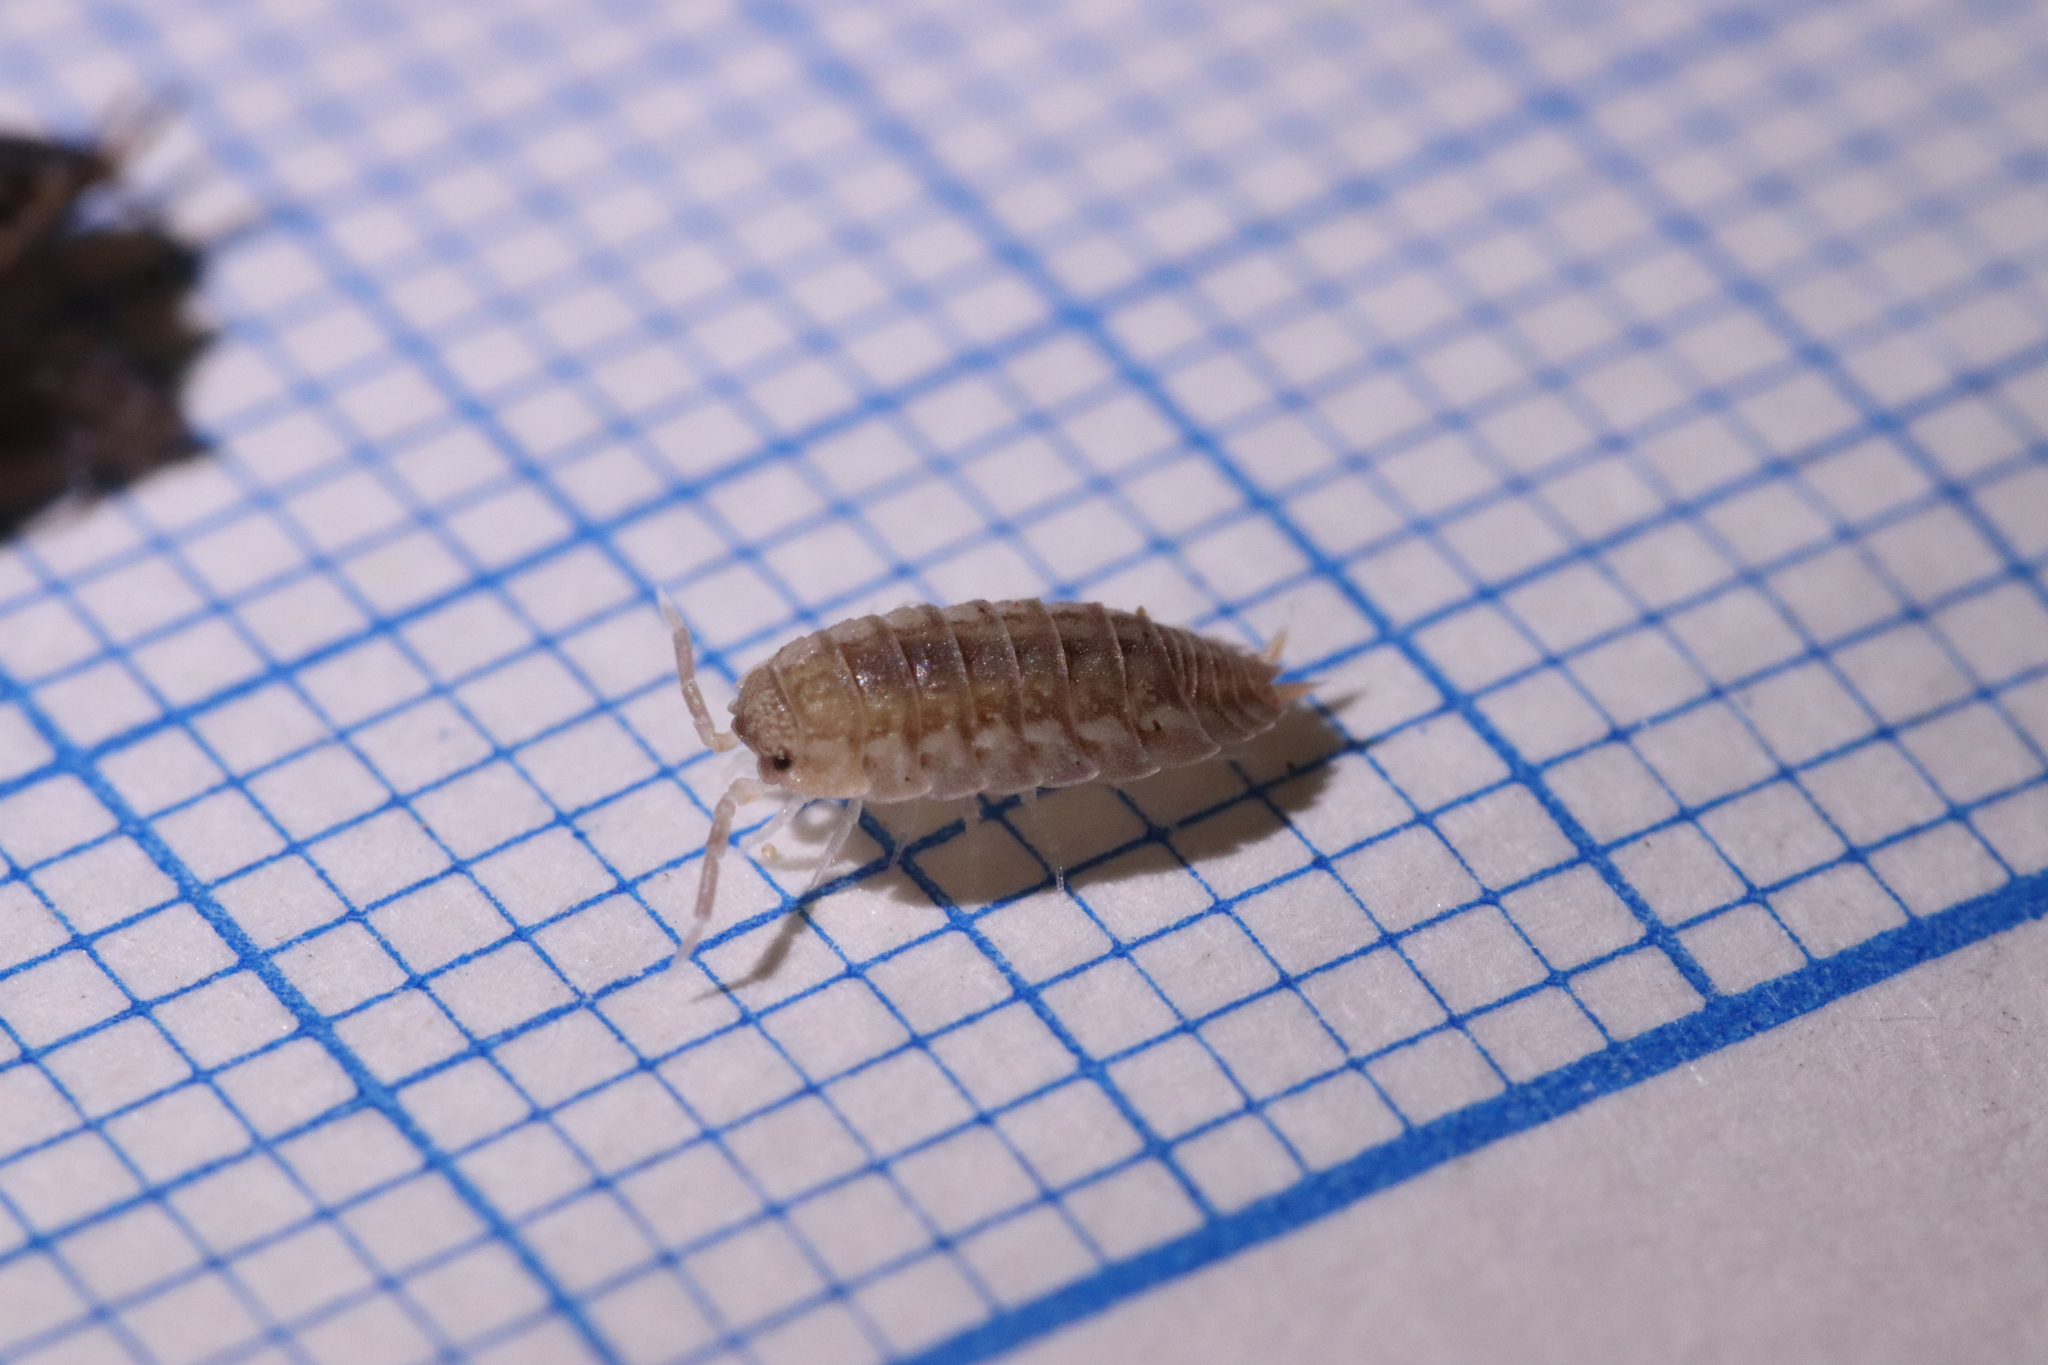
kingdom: Animalia
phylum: Arthropoda
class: Malacostraca
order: Isopoda
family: Porcellionidae
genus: Lucasius
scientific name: Lucasius pallidus
